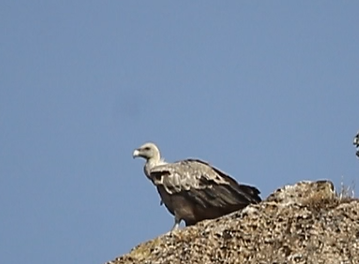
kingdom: Animalia
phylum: Chordata
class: Aves
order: Accipitriformes
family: Accipitridae
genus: Gyps
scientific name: Gyps fulvus
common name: Griffon vulture
